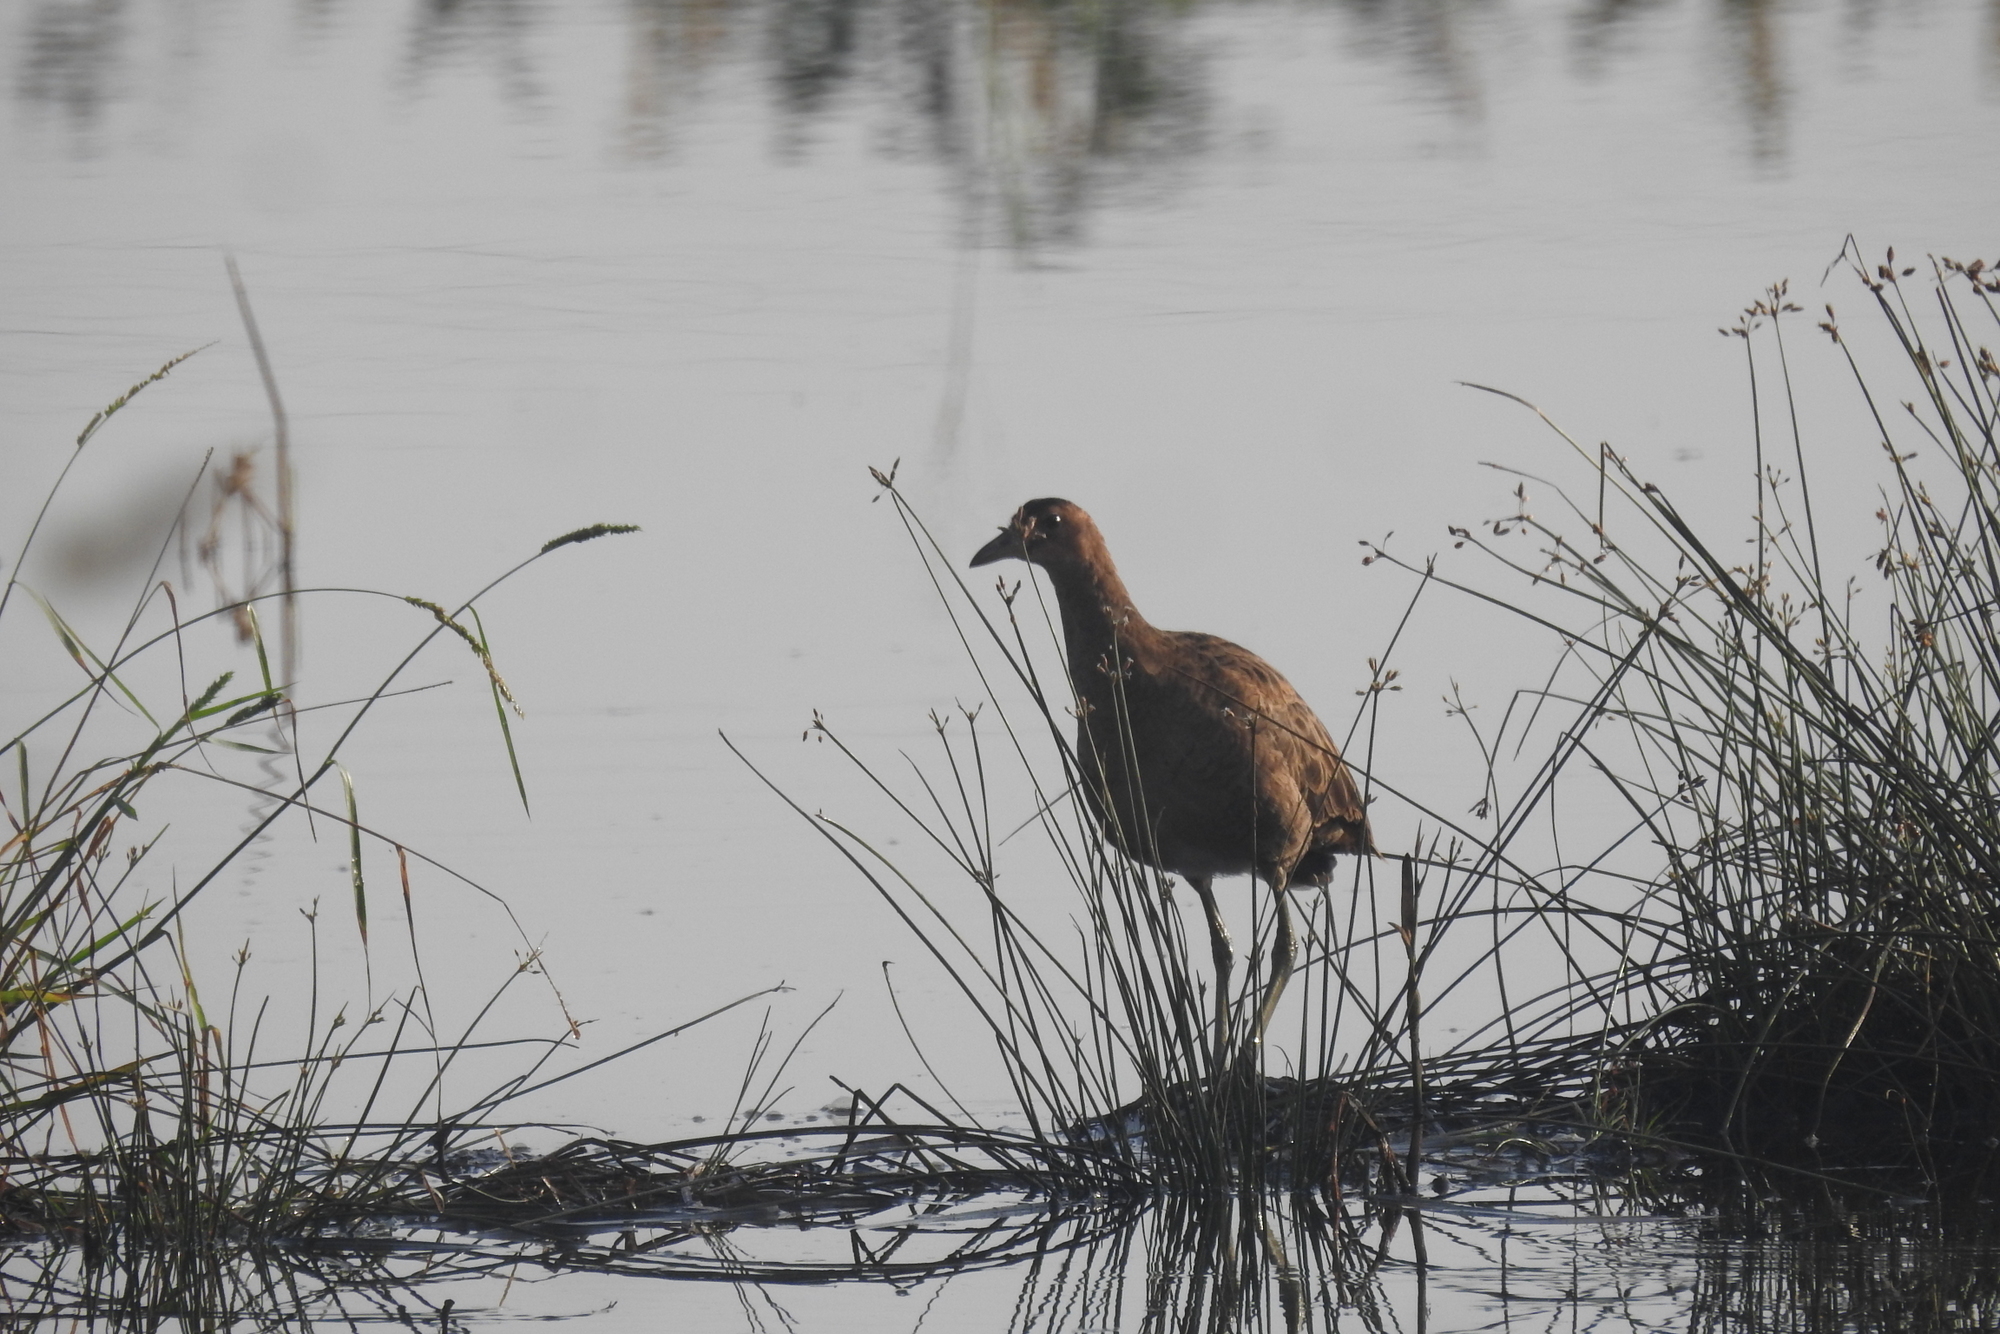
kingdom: Animalia
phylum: Chordata
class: Aves
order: Gruiformes
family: Rallidae
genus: Gallicrex
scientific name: Gallicrex cinerea
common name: Watercock
